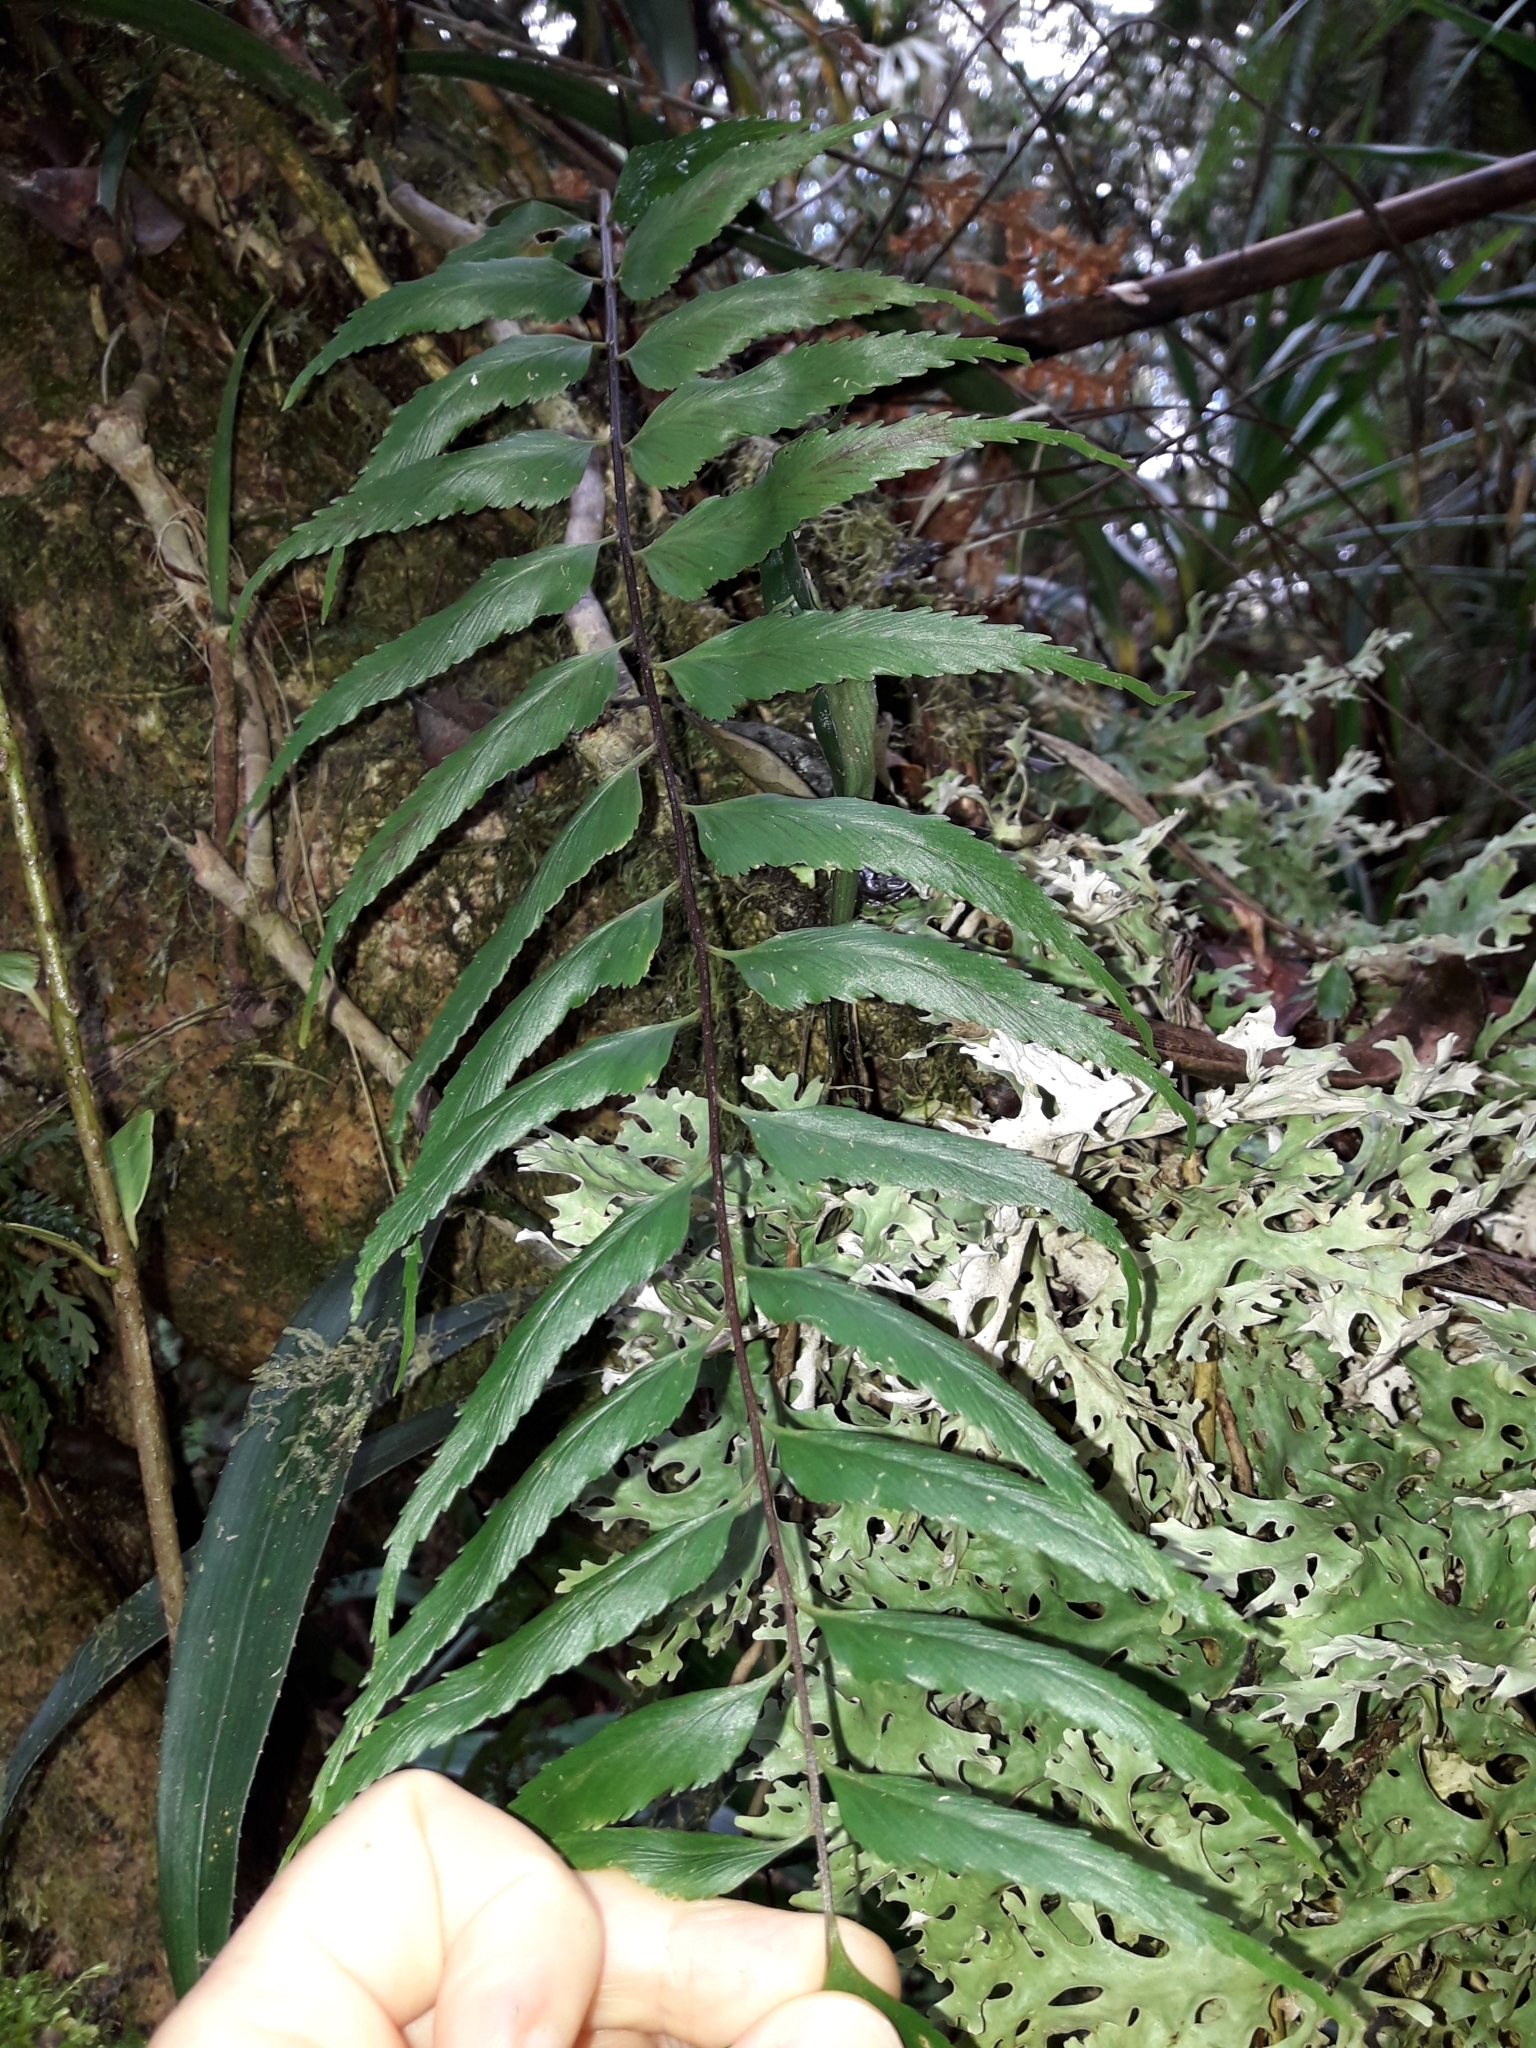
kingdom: Plantae
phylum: Tracheophyta
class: Polypodiopsida
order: Polypodiales
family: Aspleniaceae
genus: Asplenium
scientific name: Asplenium nigrescens
